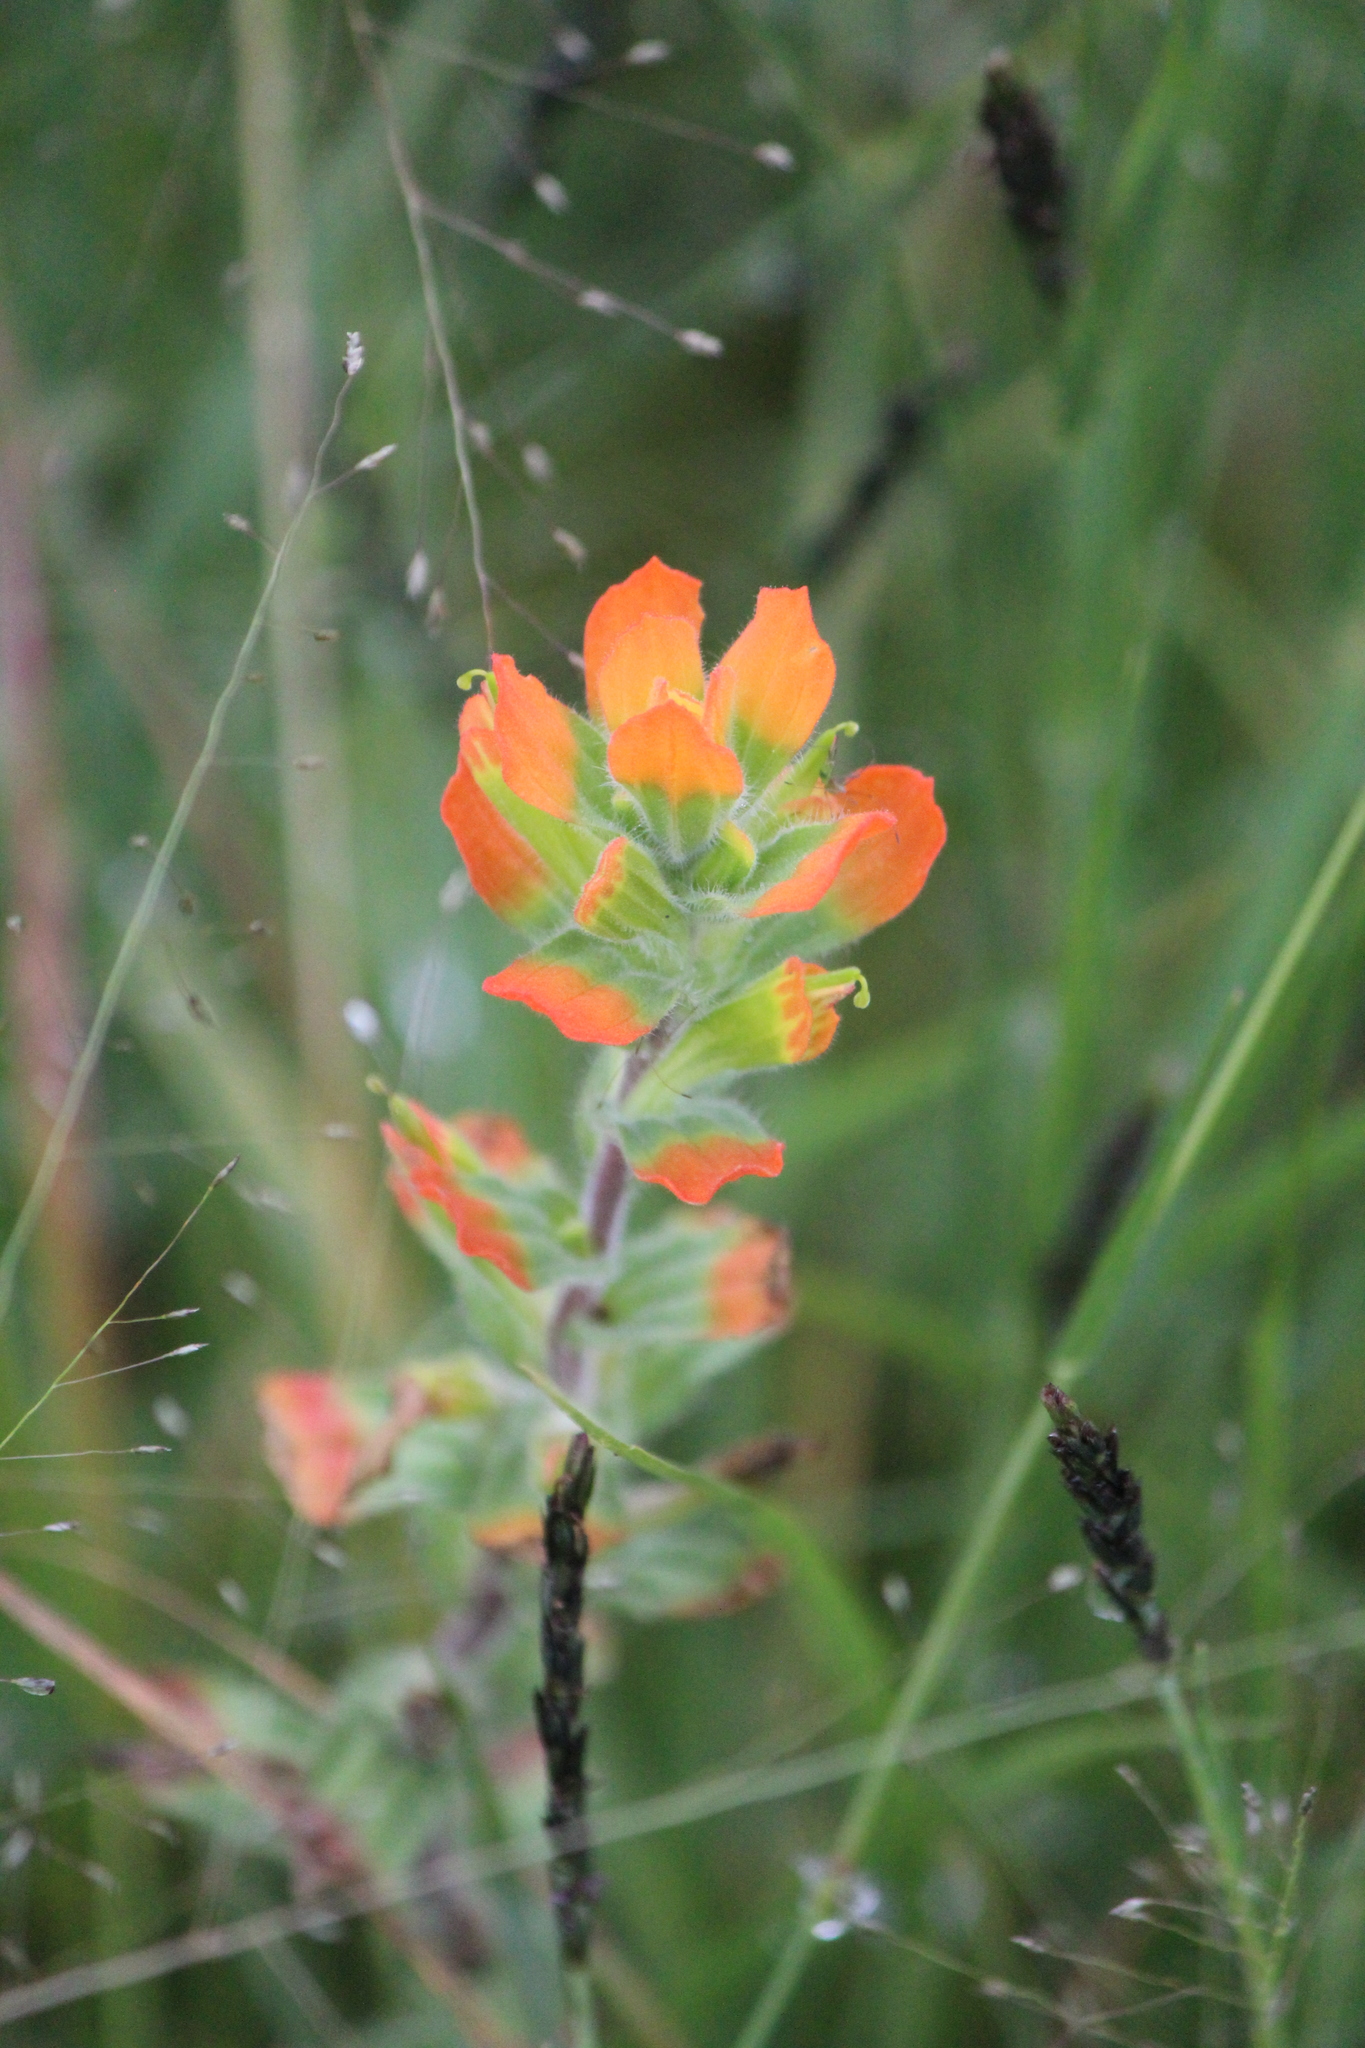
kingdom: Plantae
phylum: Tracheophyta
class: Magnoliopsida
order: Lamiales
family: Orobanchaceae
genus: Castilleja
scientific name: Castilleja arvensis
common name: Indian paintbrush
